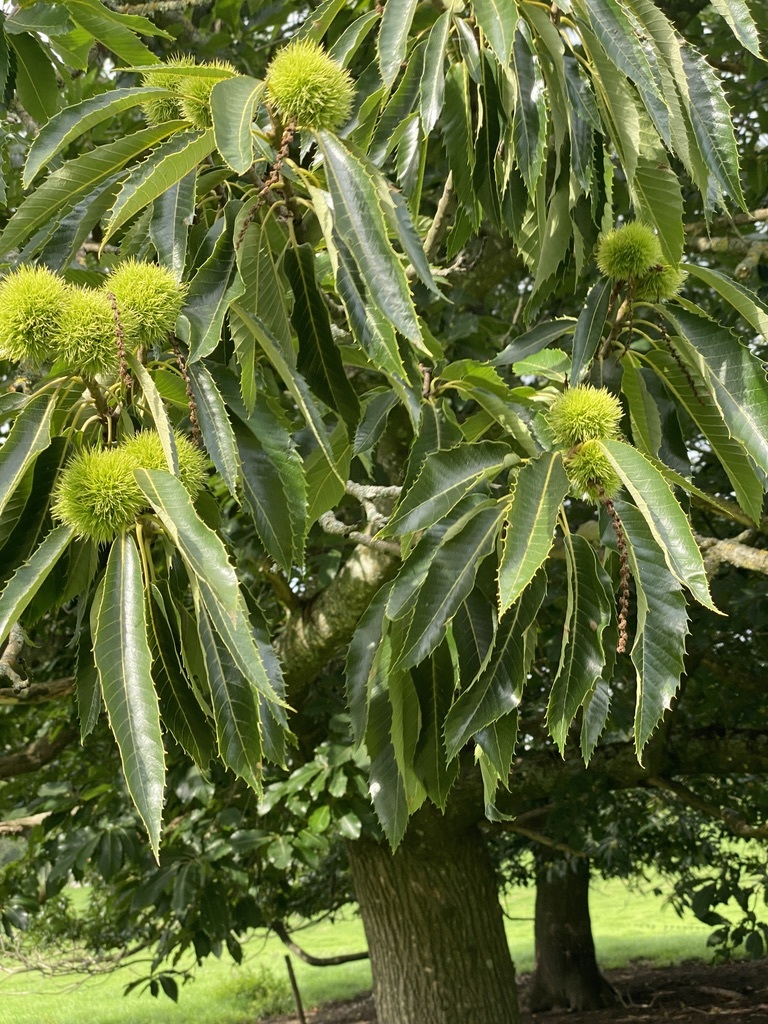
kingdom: Plantae
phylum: Tracheophyta
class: Magnoliopsida
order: Fagales
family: Fagaceae
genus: Castanea
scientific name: Castanea sativa
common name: Sweet chestnut
